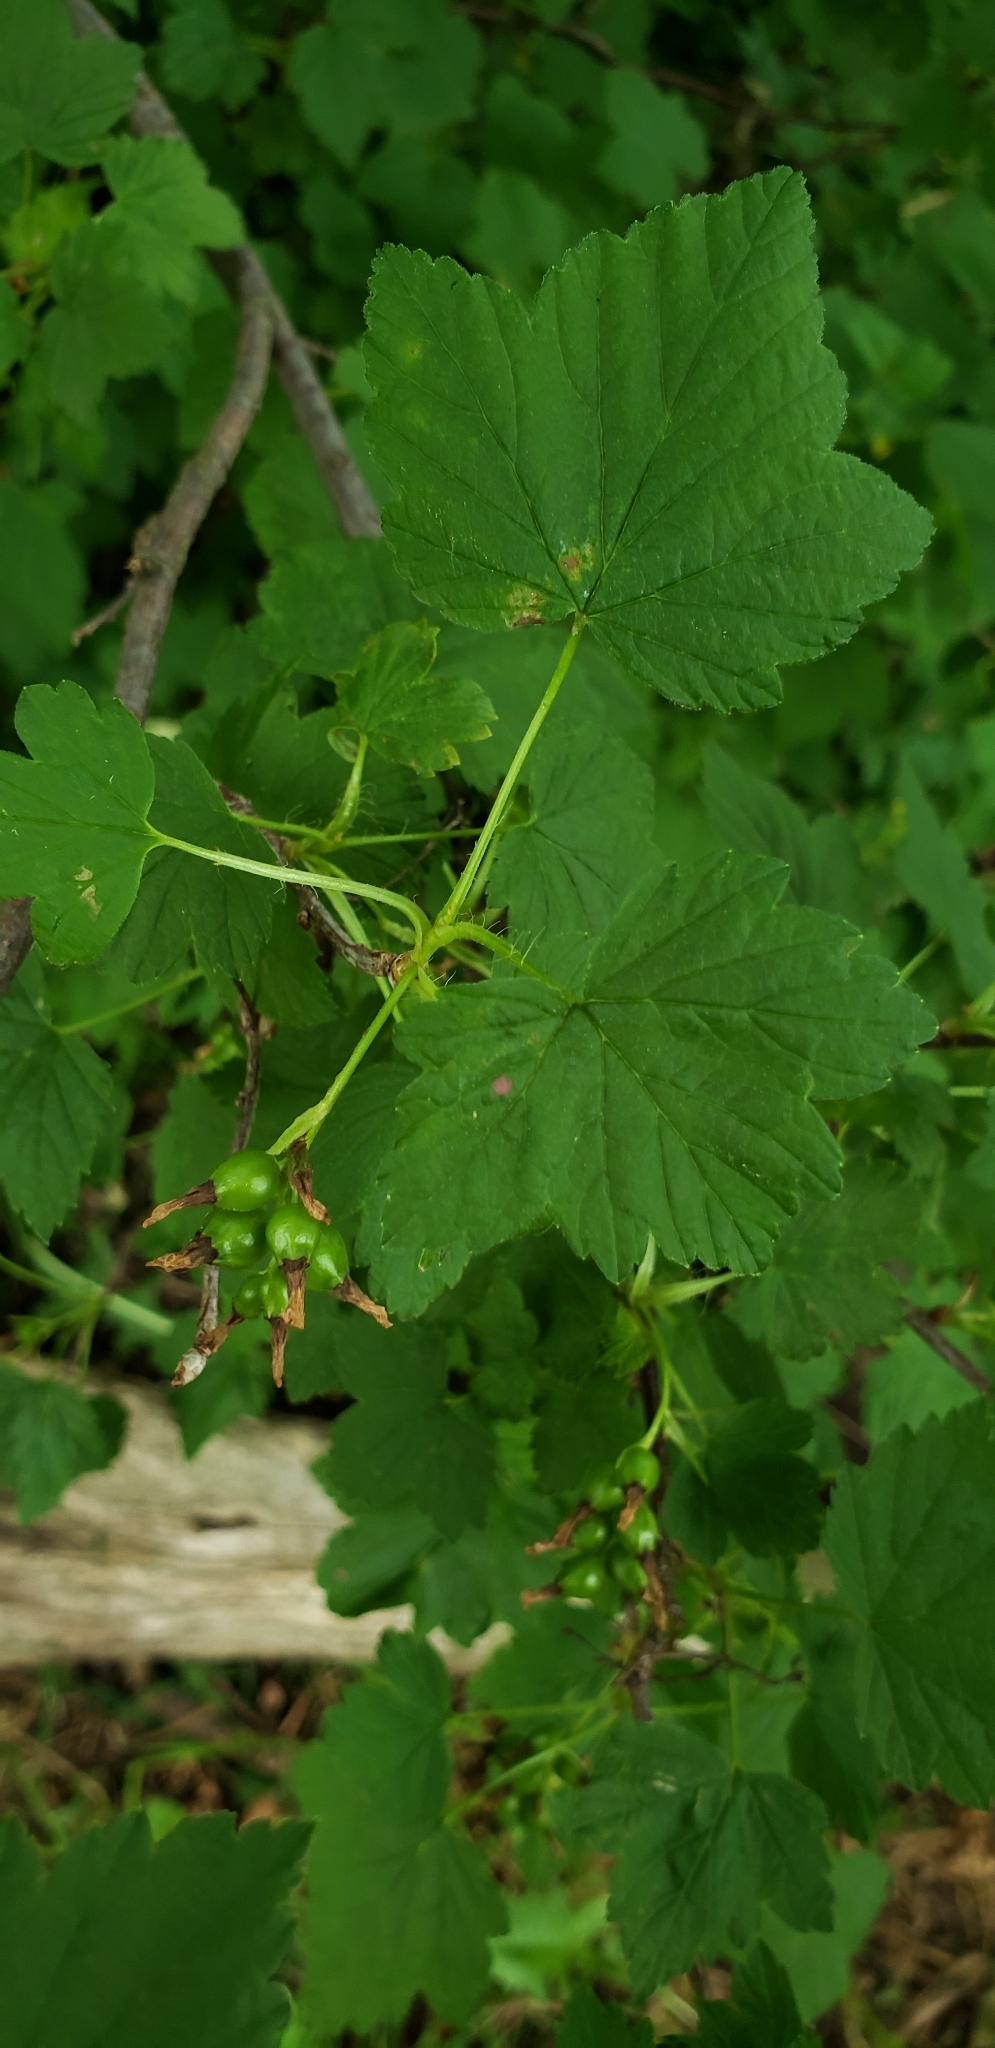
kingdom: Plantae
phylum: Tracheophyta
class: Magnoliopsida
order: Saxifragales
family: Grossulariaceae
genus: Ribes
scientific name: Ribes americanum
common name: American black currant
